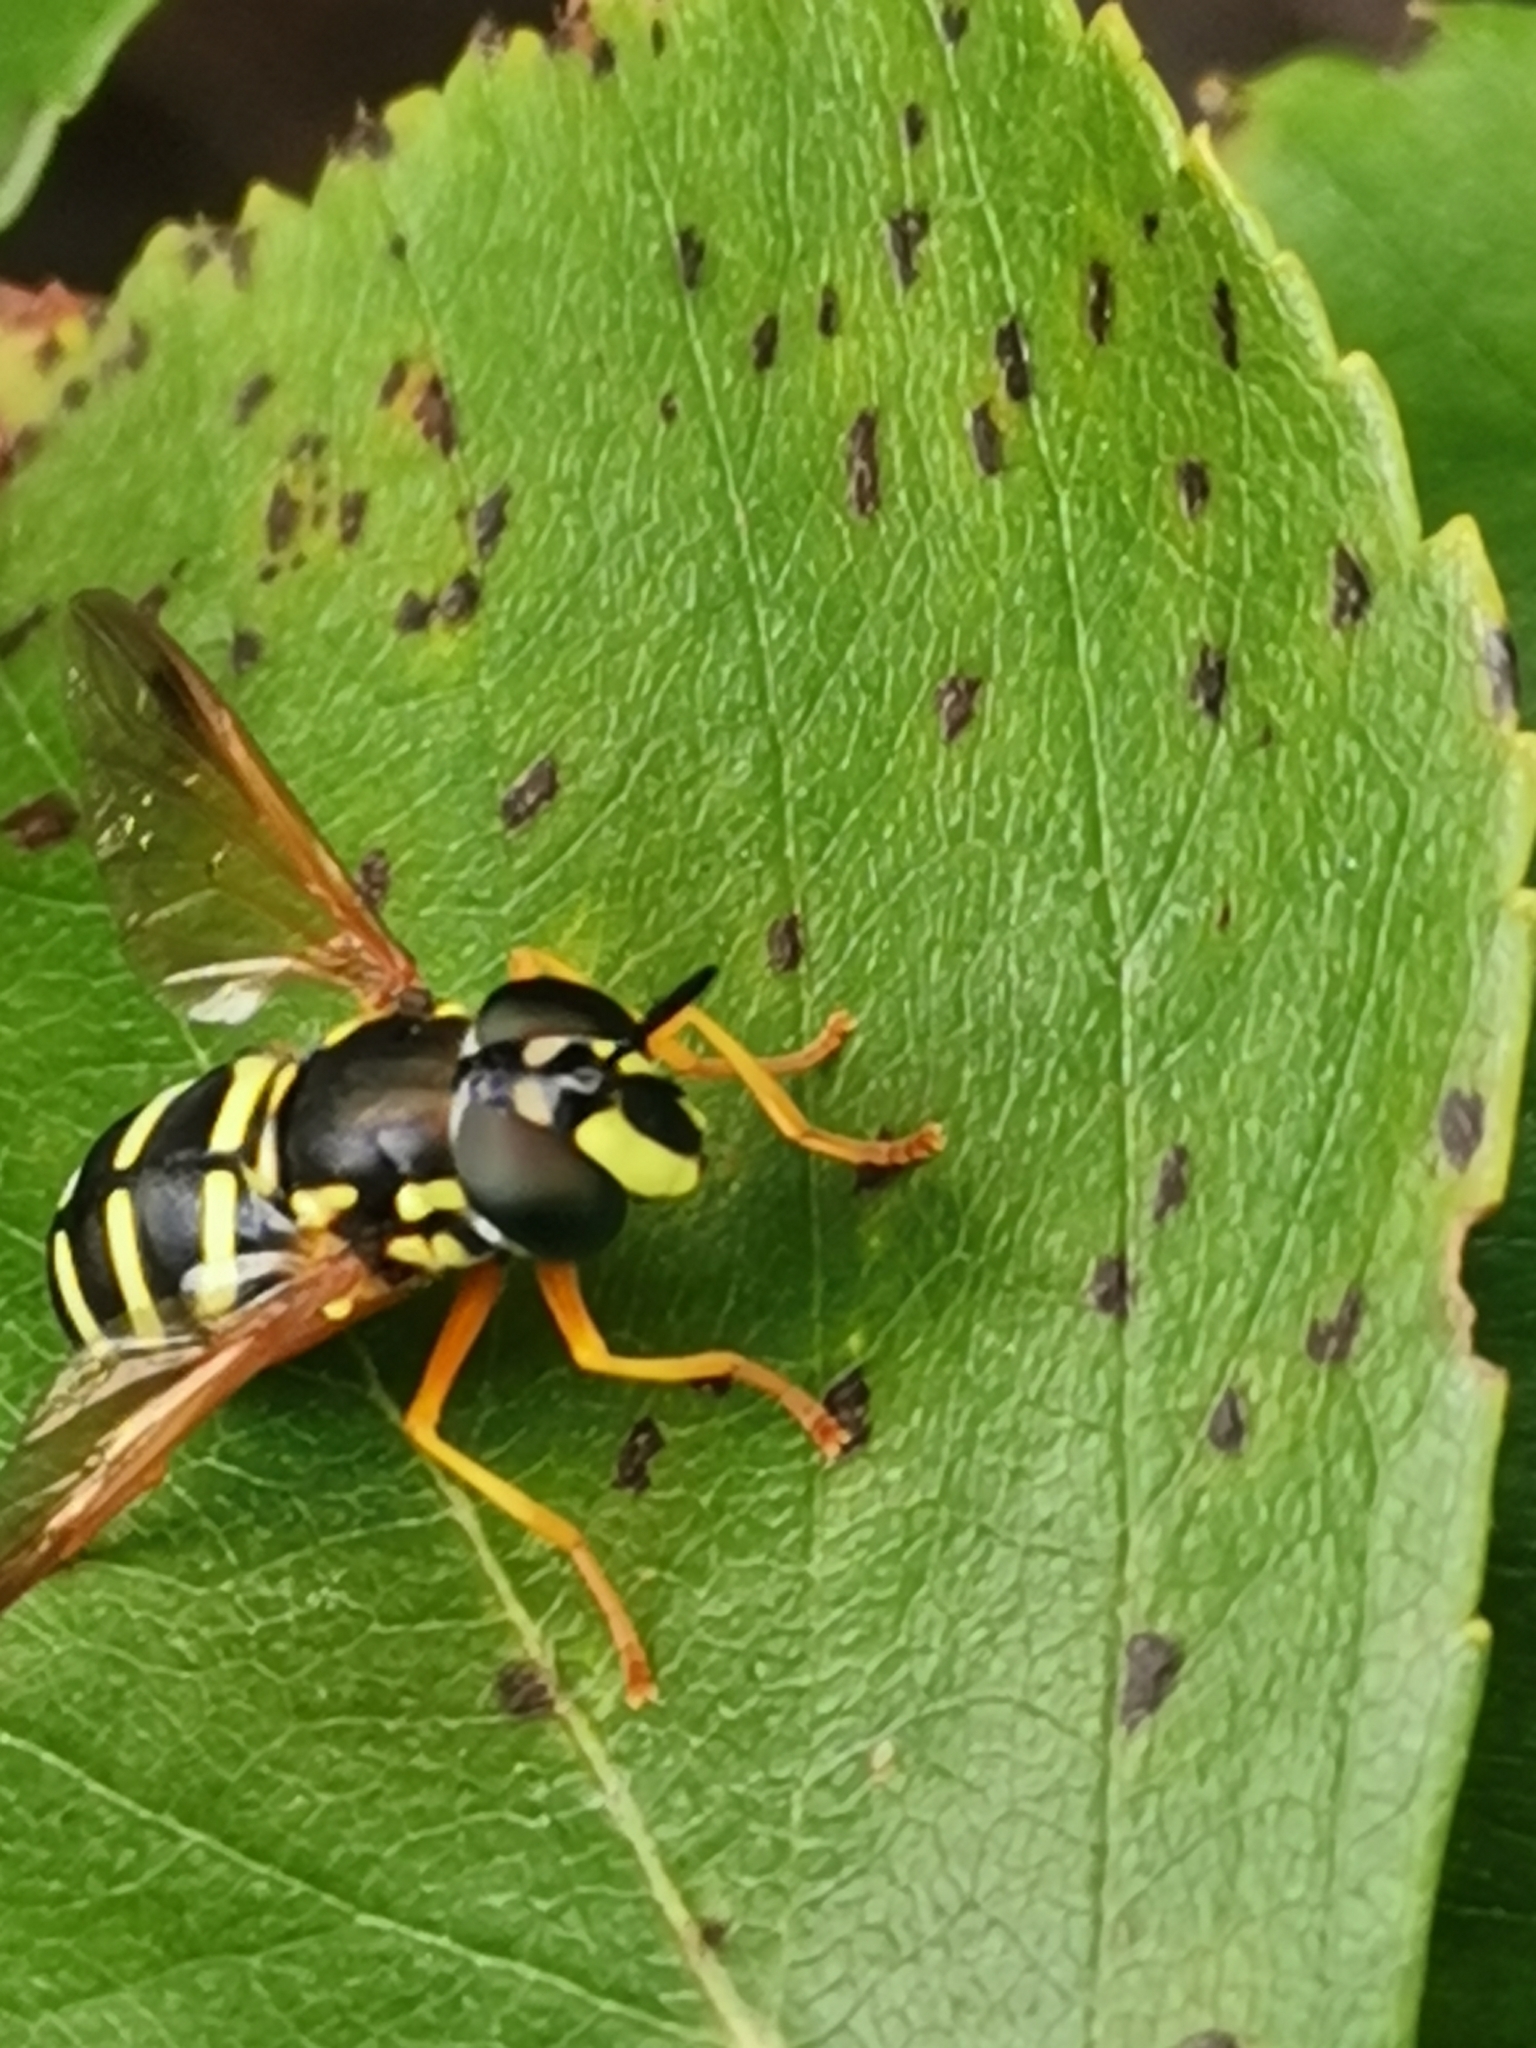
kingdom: Animalia
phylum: Arthropoda
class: Insecta
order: Diptera
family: Syrphidae
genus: Chrysotoxum
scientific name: Chrysotoxum festivum
